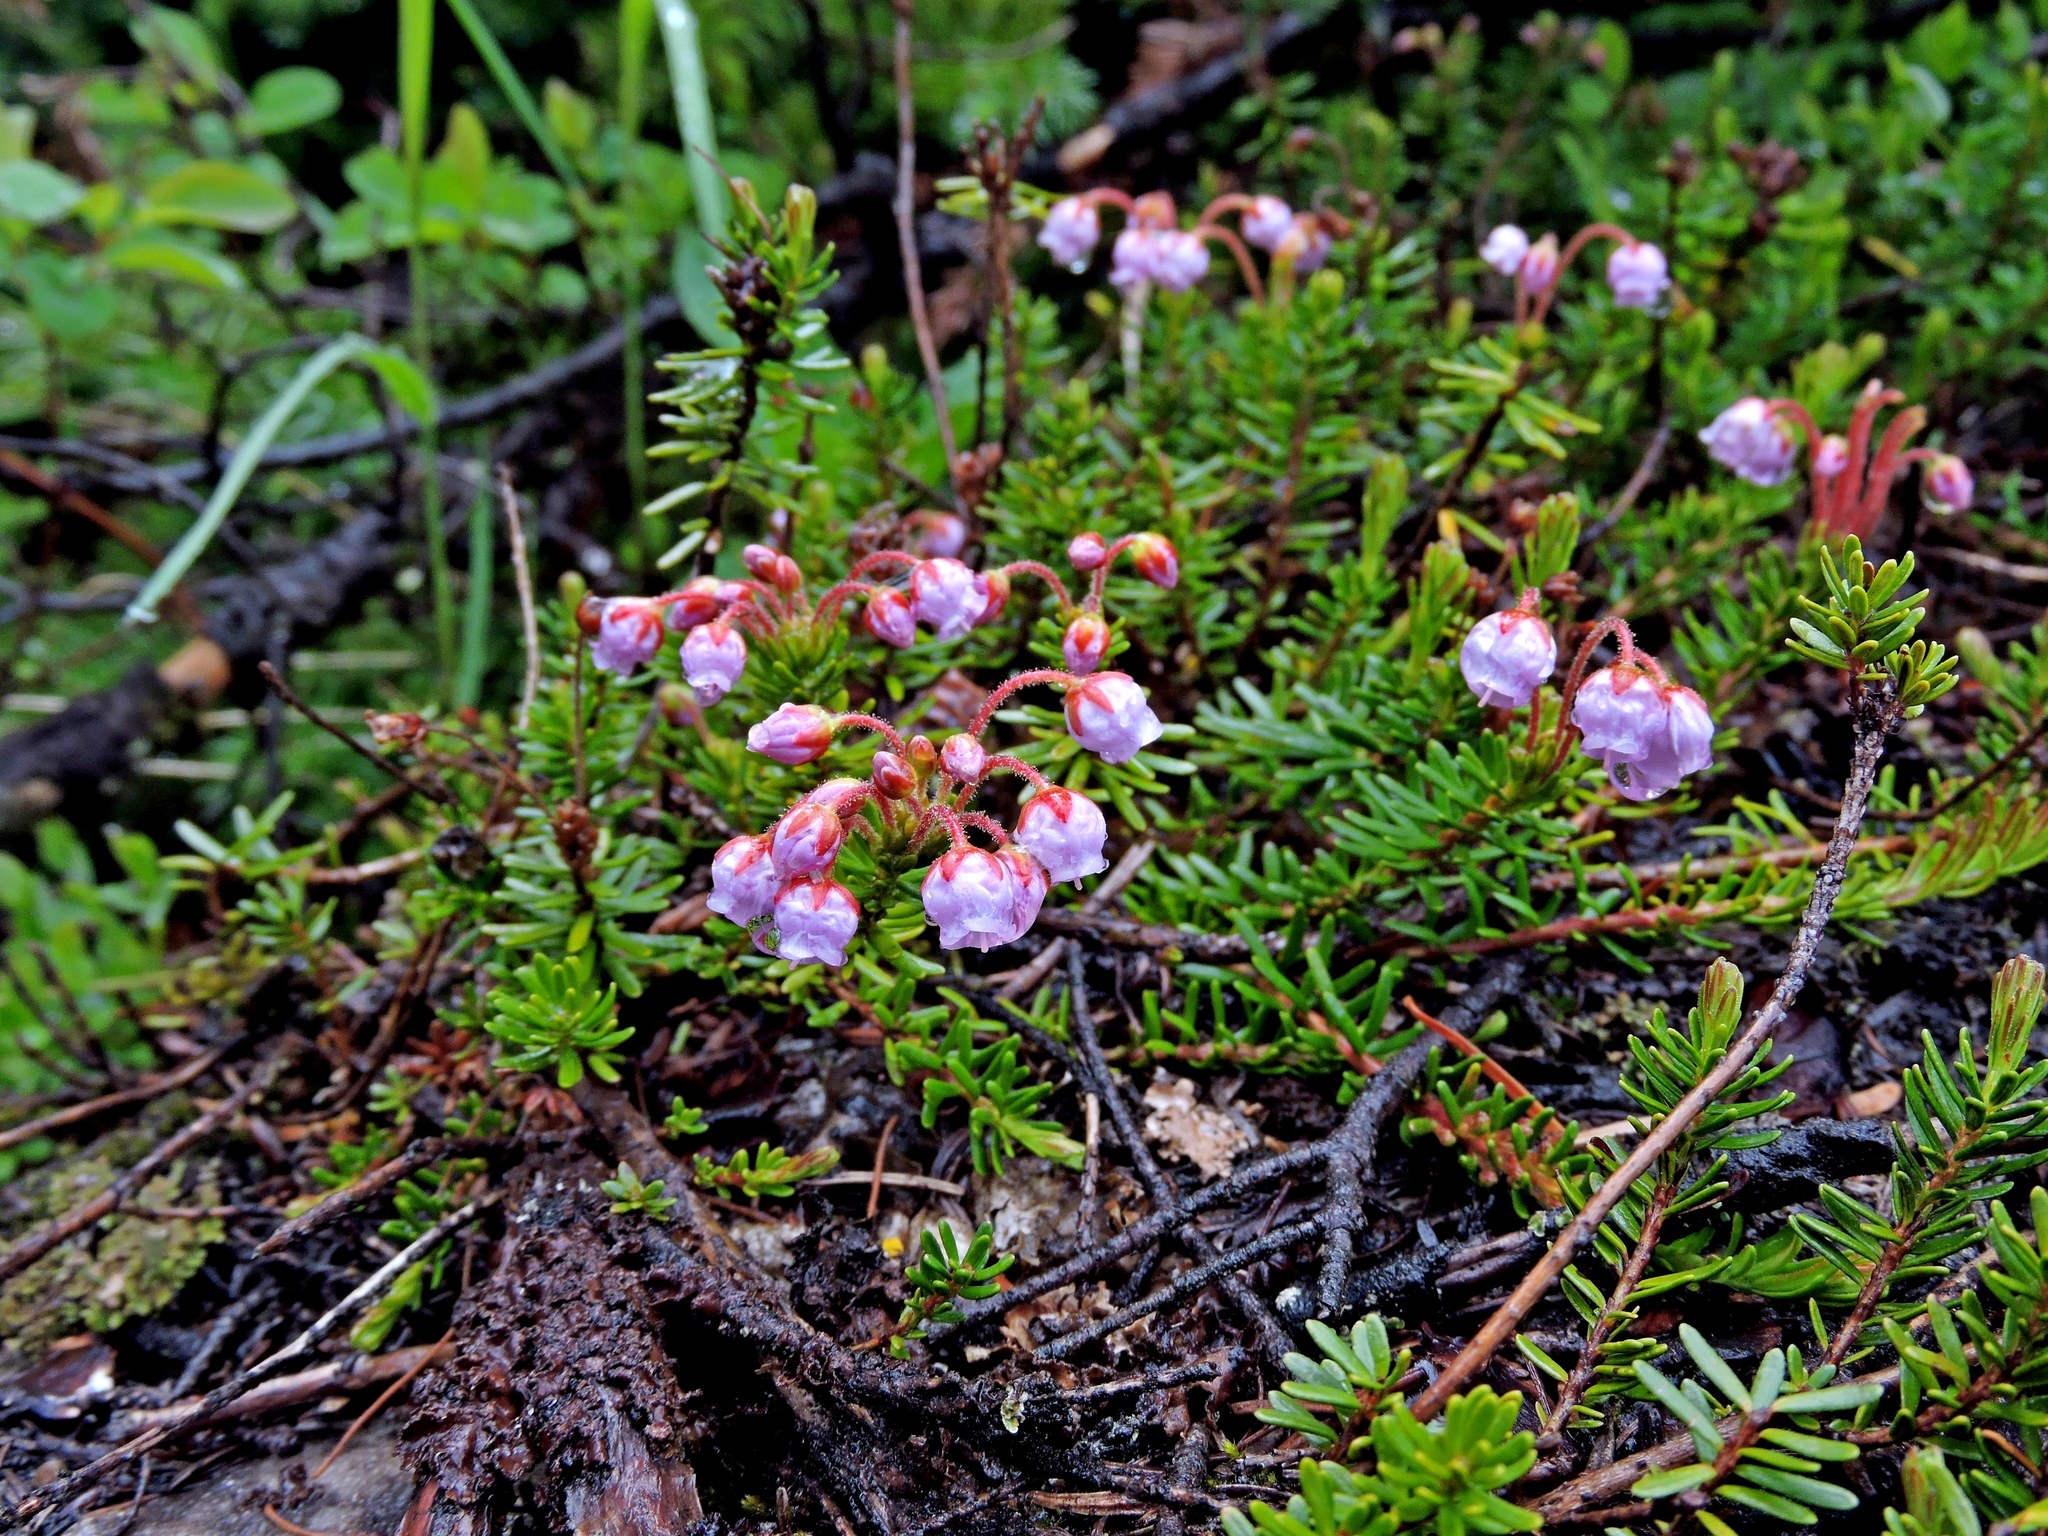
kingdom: Plantae
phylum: Tracheophyta
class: Magnoliopsida
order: Ericales
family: Ericaceae
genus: Phyllodoce
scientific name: Phyllodoce empetriformis
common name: Pink mountain heather
